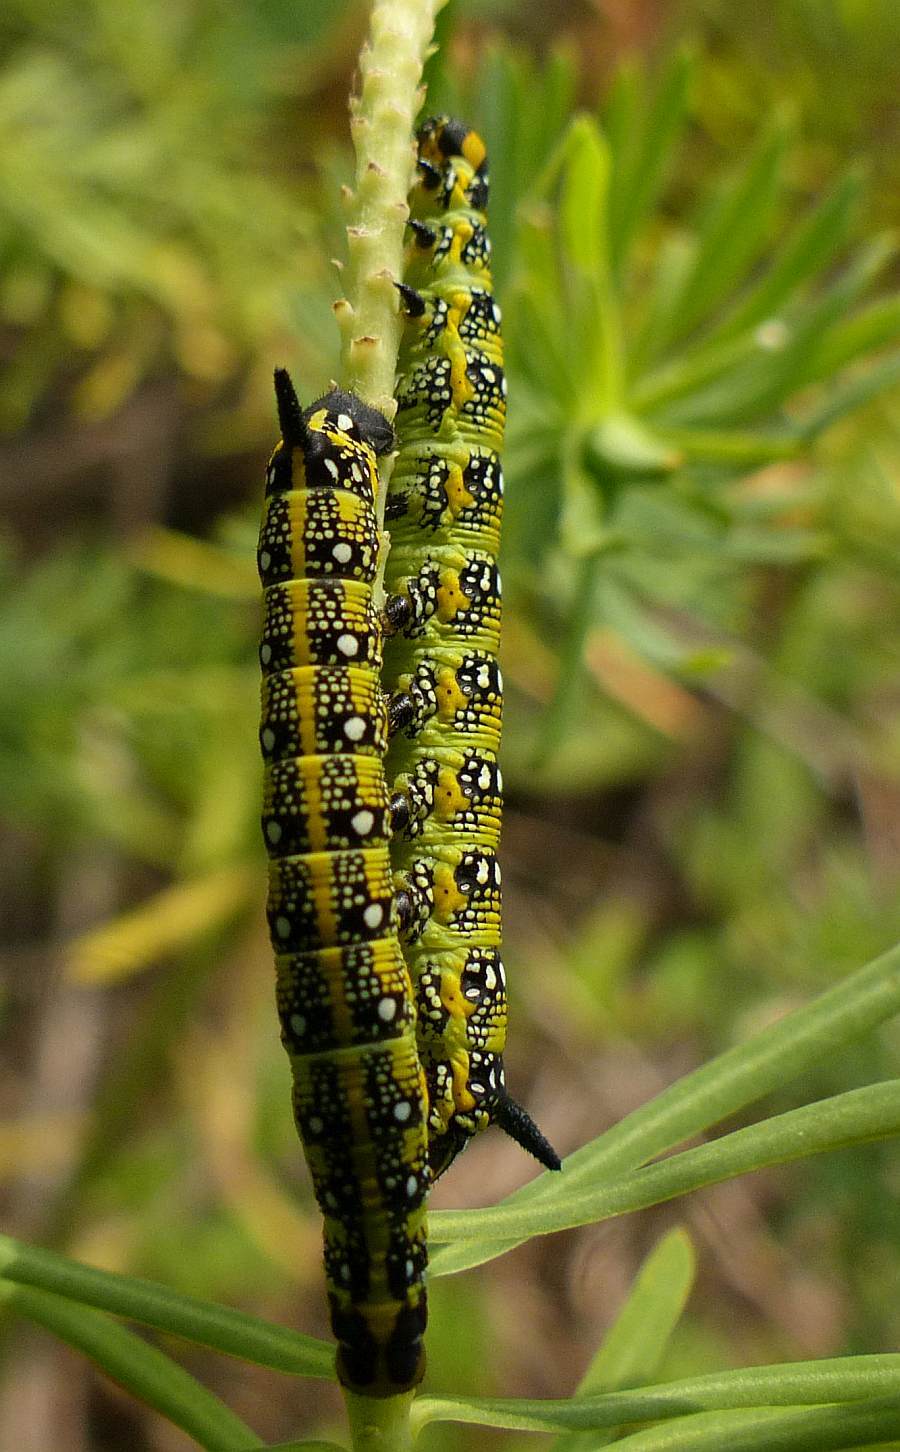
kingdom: Animalia
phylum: Arthropoda
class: Insecta
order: Lepidoptera
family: Sphingidae
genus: Hyles
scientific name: Hyles euphorbiae
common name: Spurge hawk-moth
